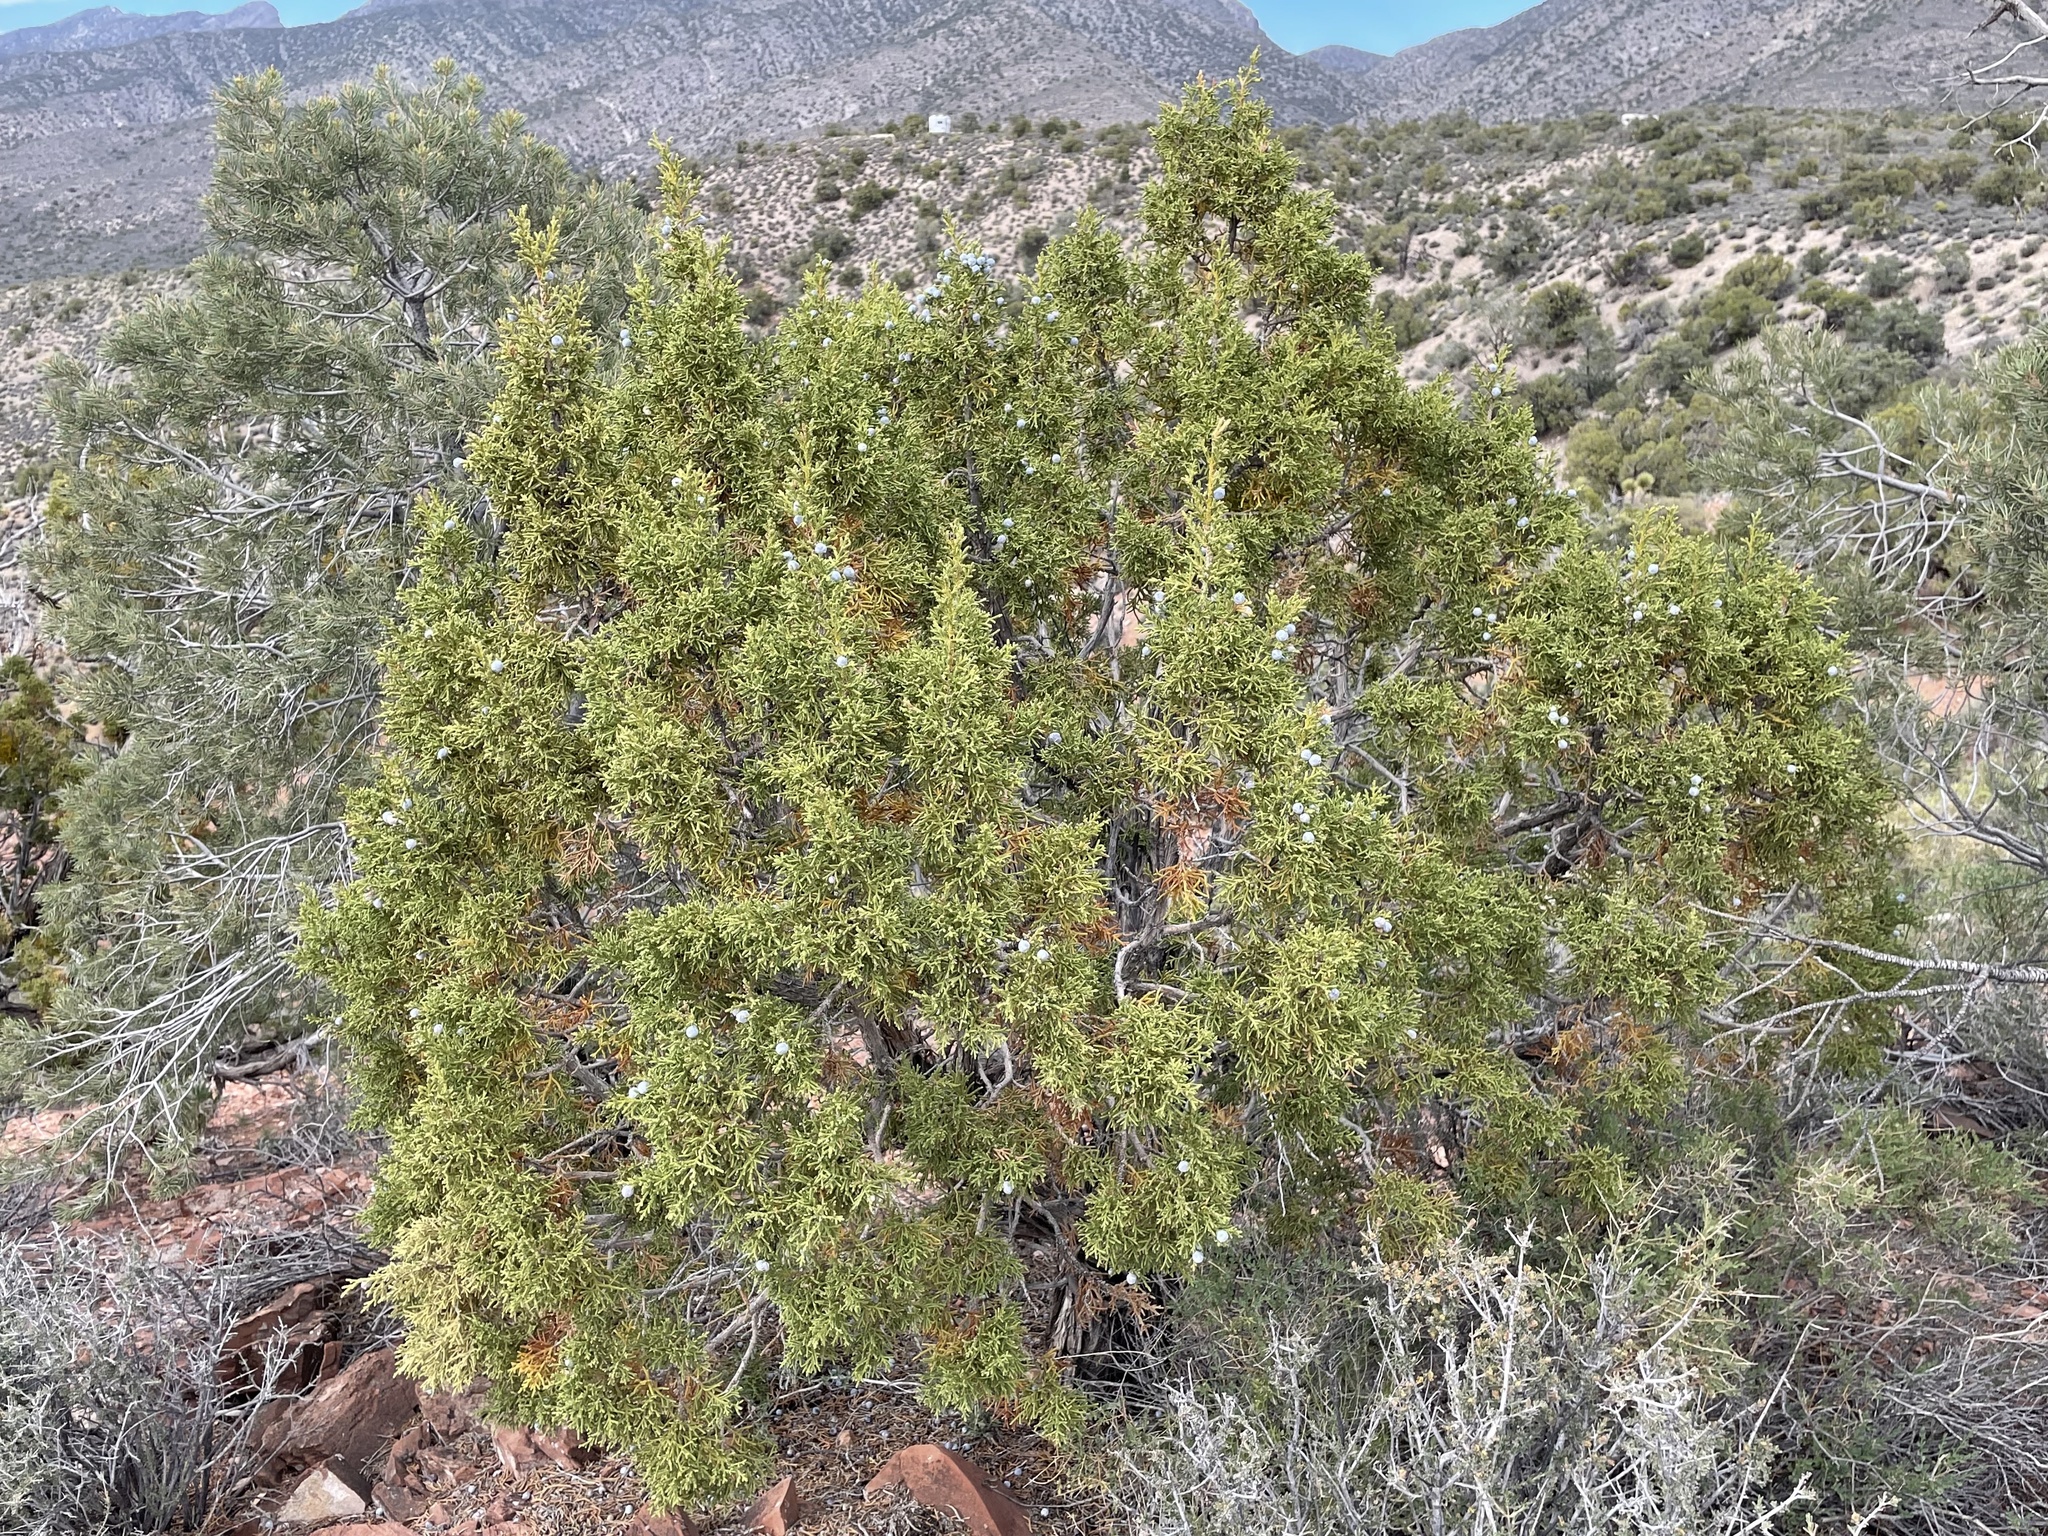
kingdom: Plantae
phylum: Tracheophyta
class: Pinopsida
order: Pinales
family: Cupressaceae
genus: Juniperus
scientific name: Juniperus osteosperma
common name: Utah juniper
